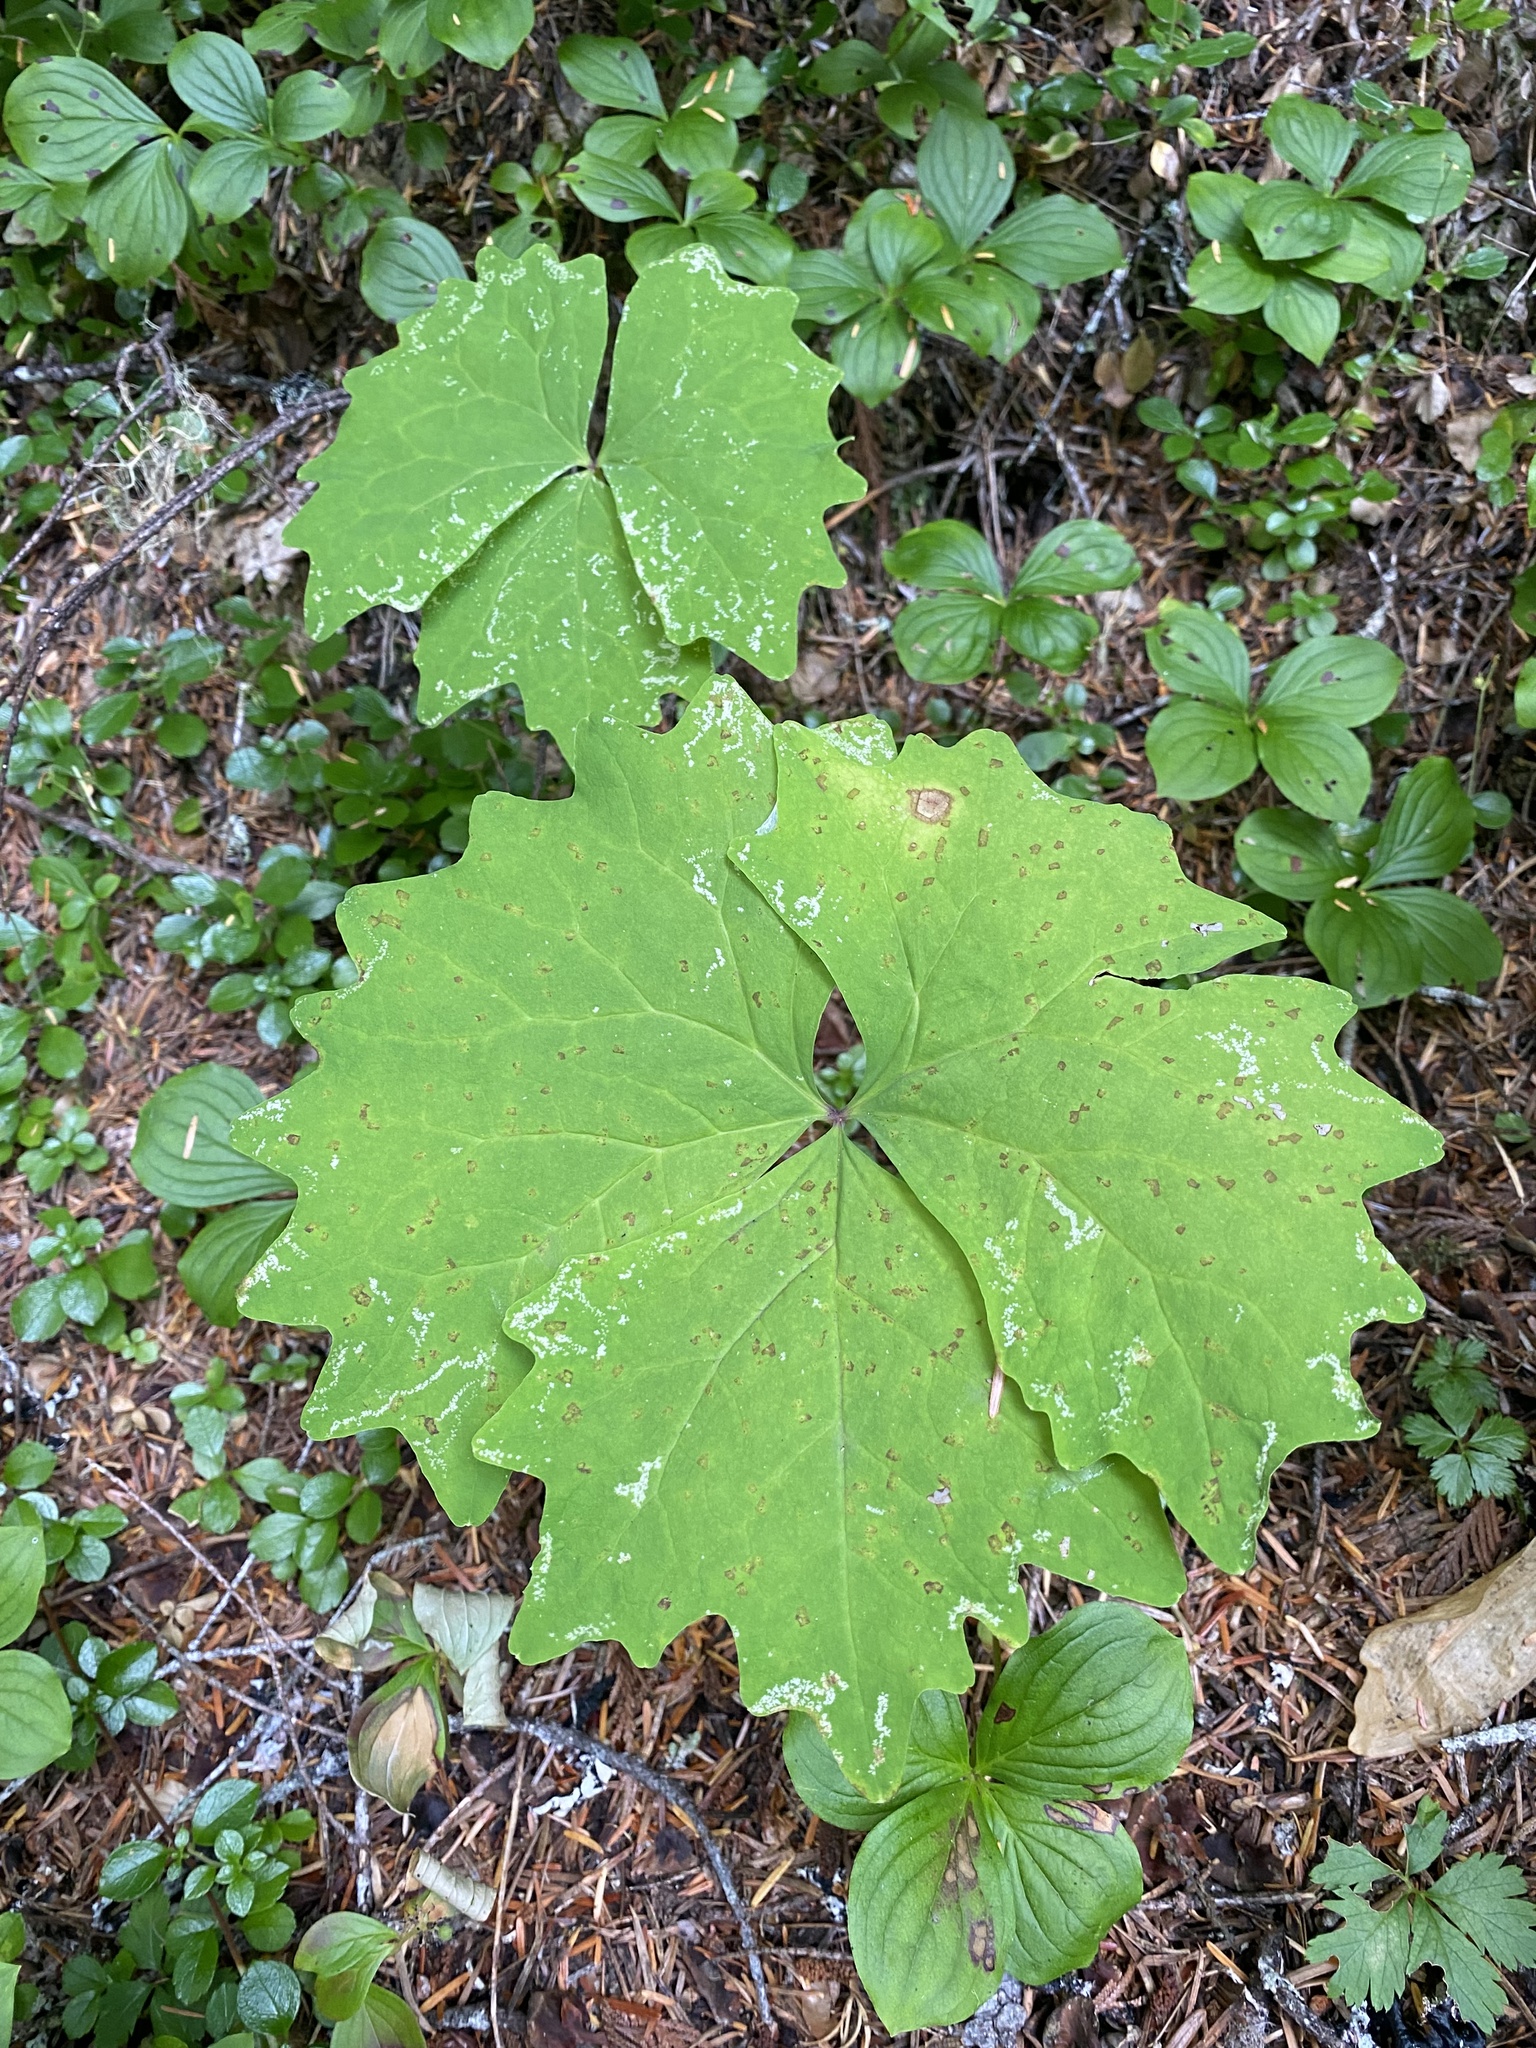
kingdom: Plantae
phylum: Tracheophyta
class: Magnoliopsida
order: Ranunculales
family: Berberidaceae
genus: Achlys
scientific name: Achlys californica
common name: California deer-foot
